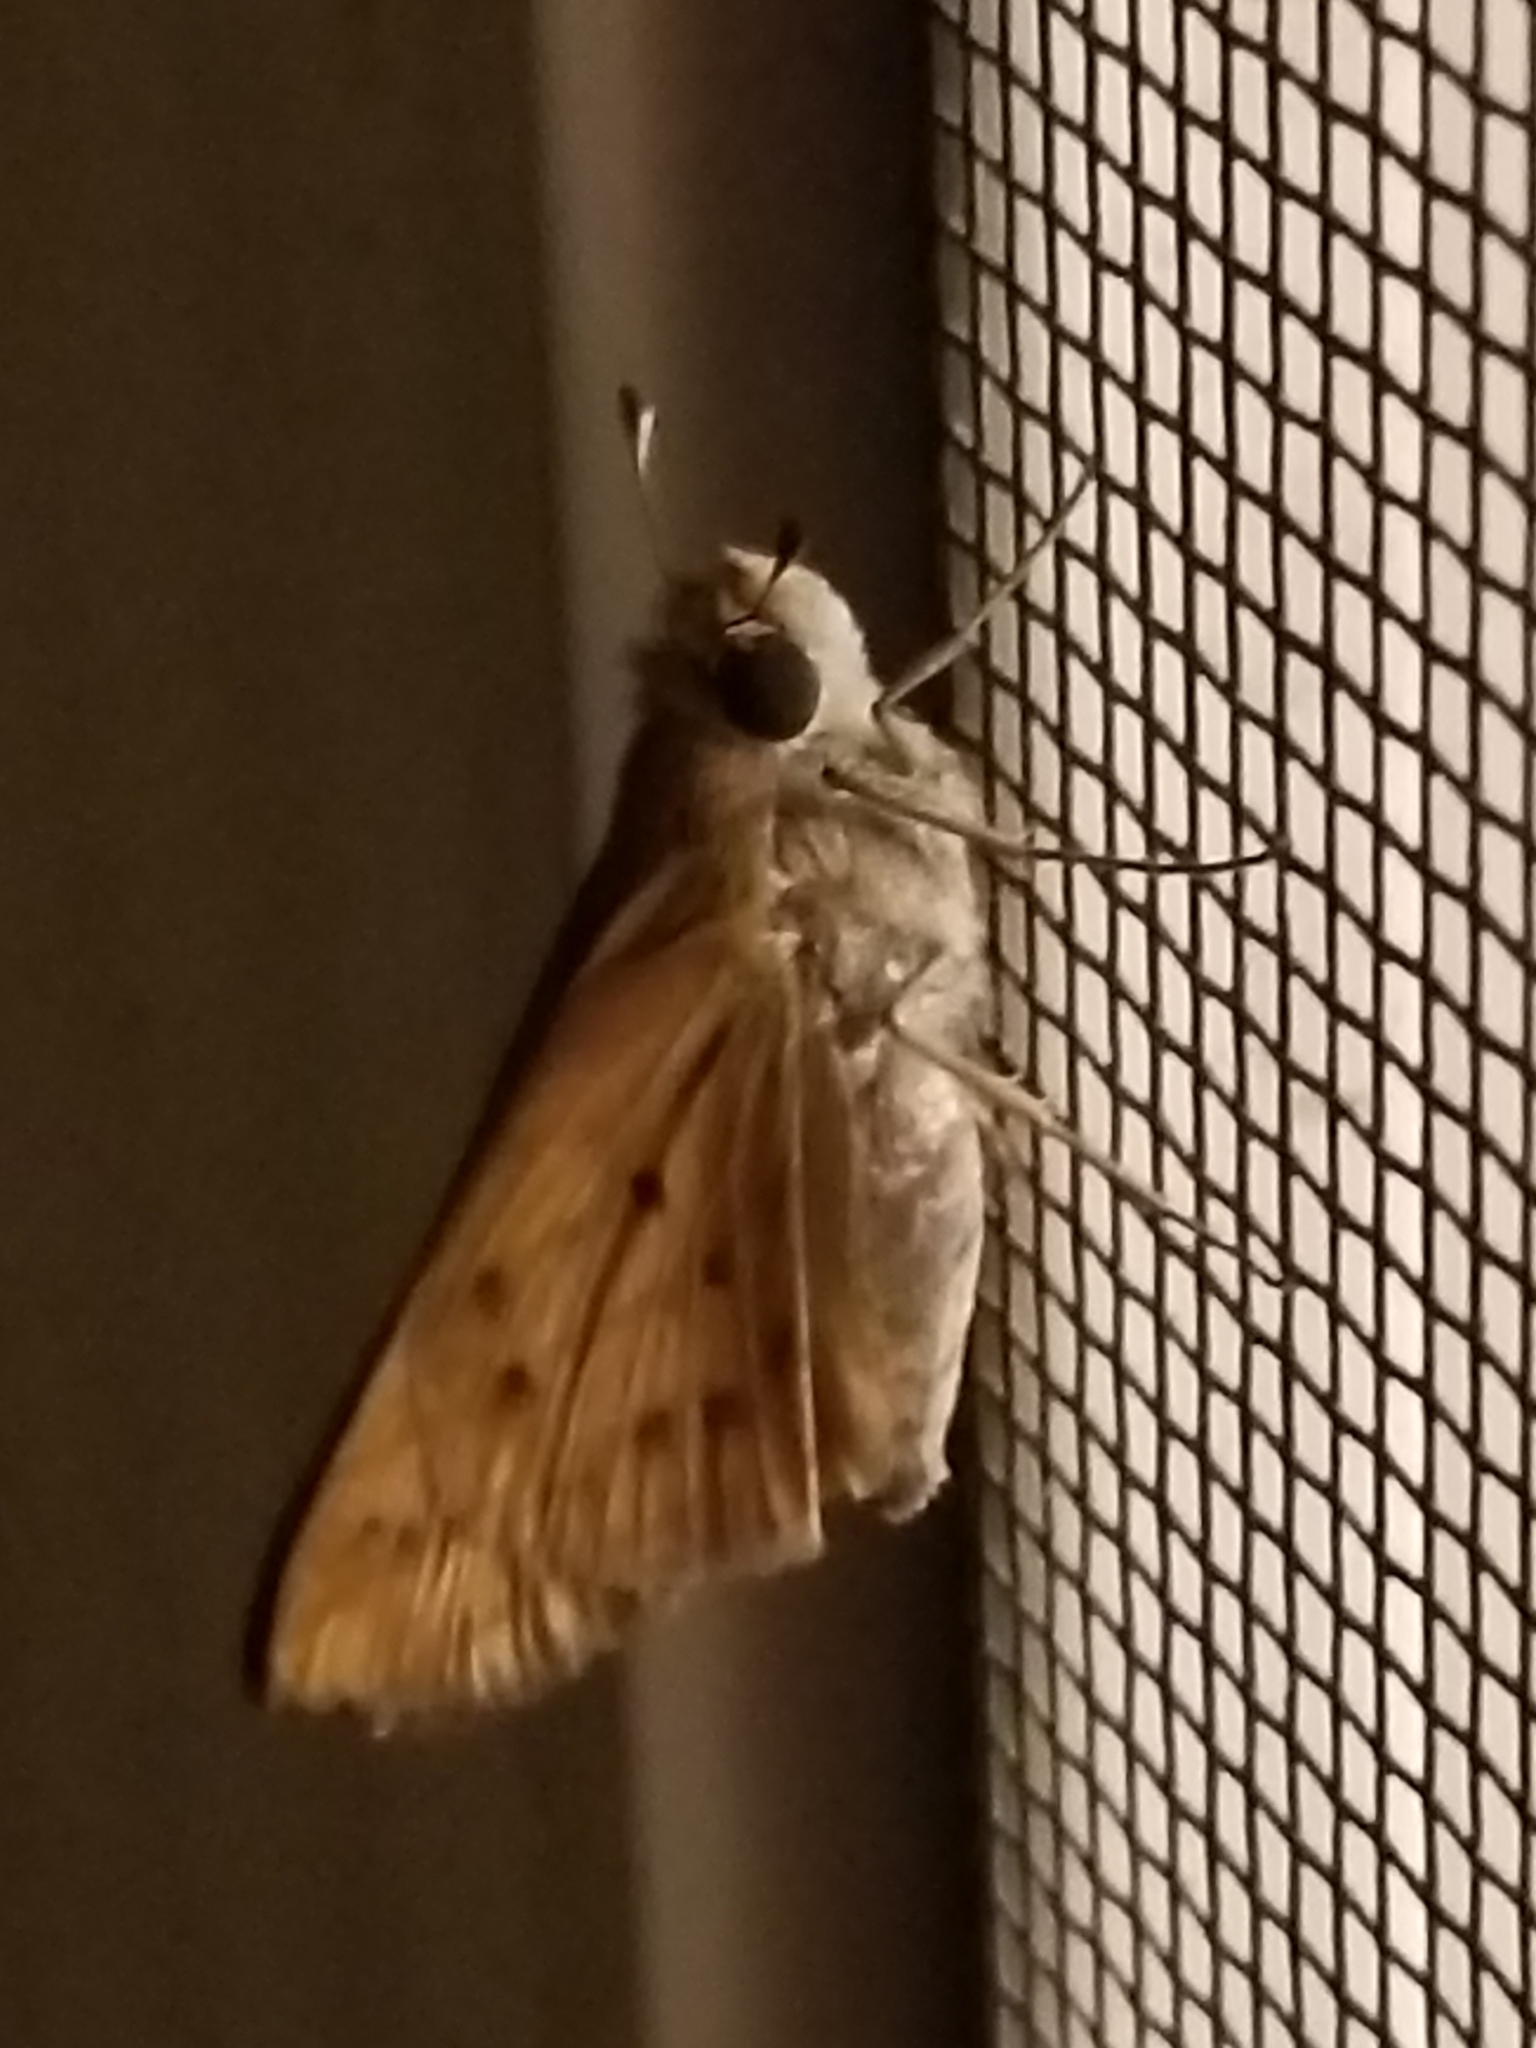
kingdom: Animalia
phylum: Arthropoda
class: Insecta
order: Lepidoptera
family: Hesperiidae
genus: Hylephila
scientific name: Hylephila phyleus
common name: Fiery skipper
